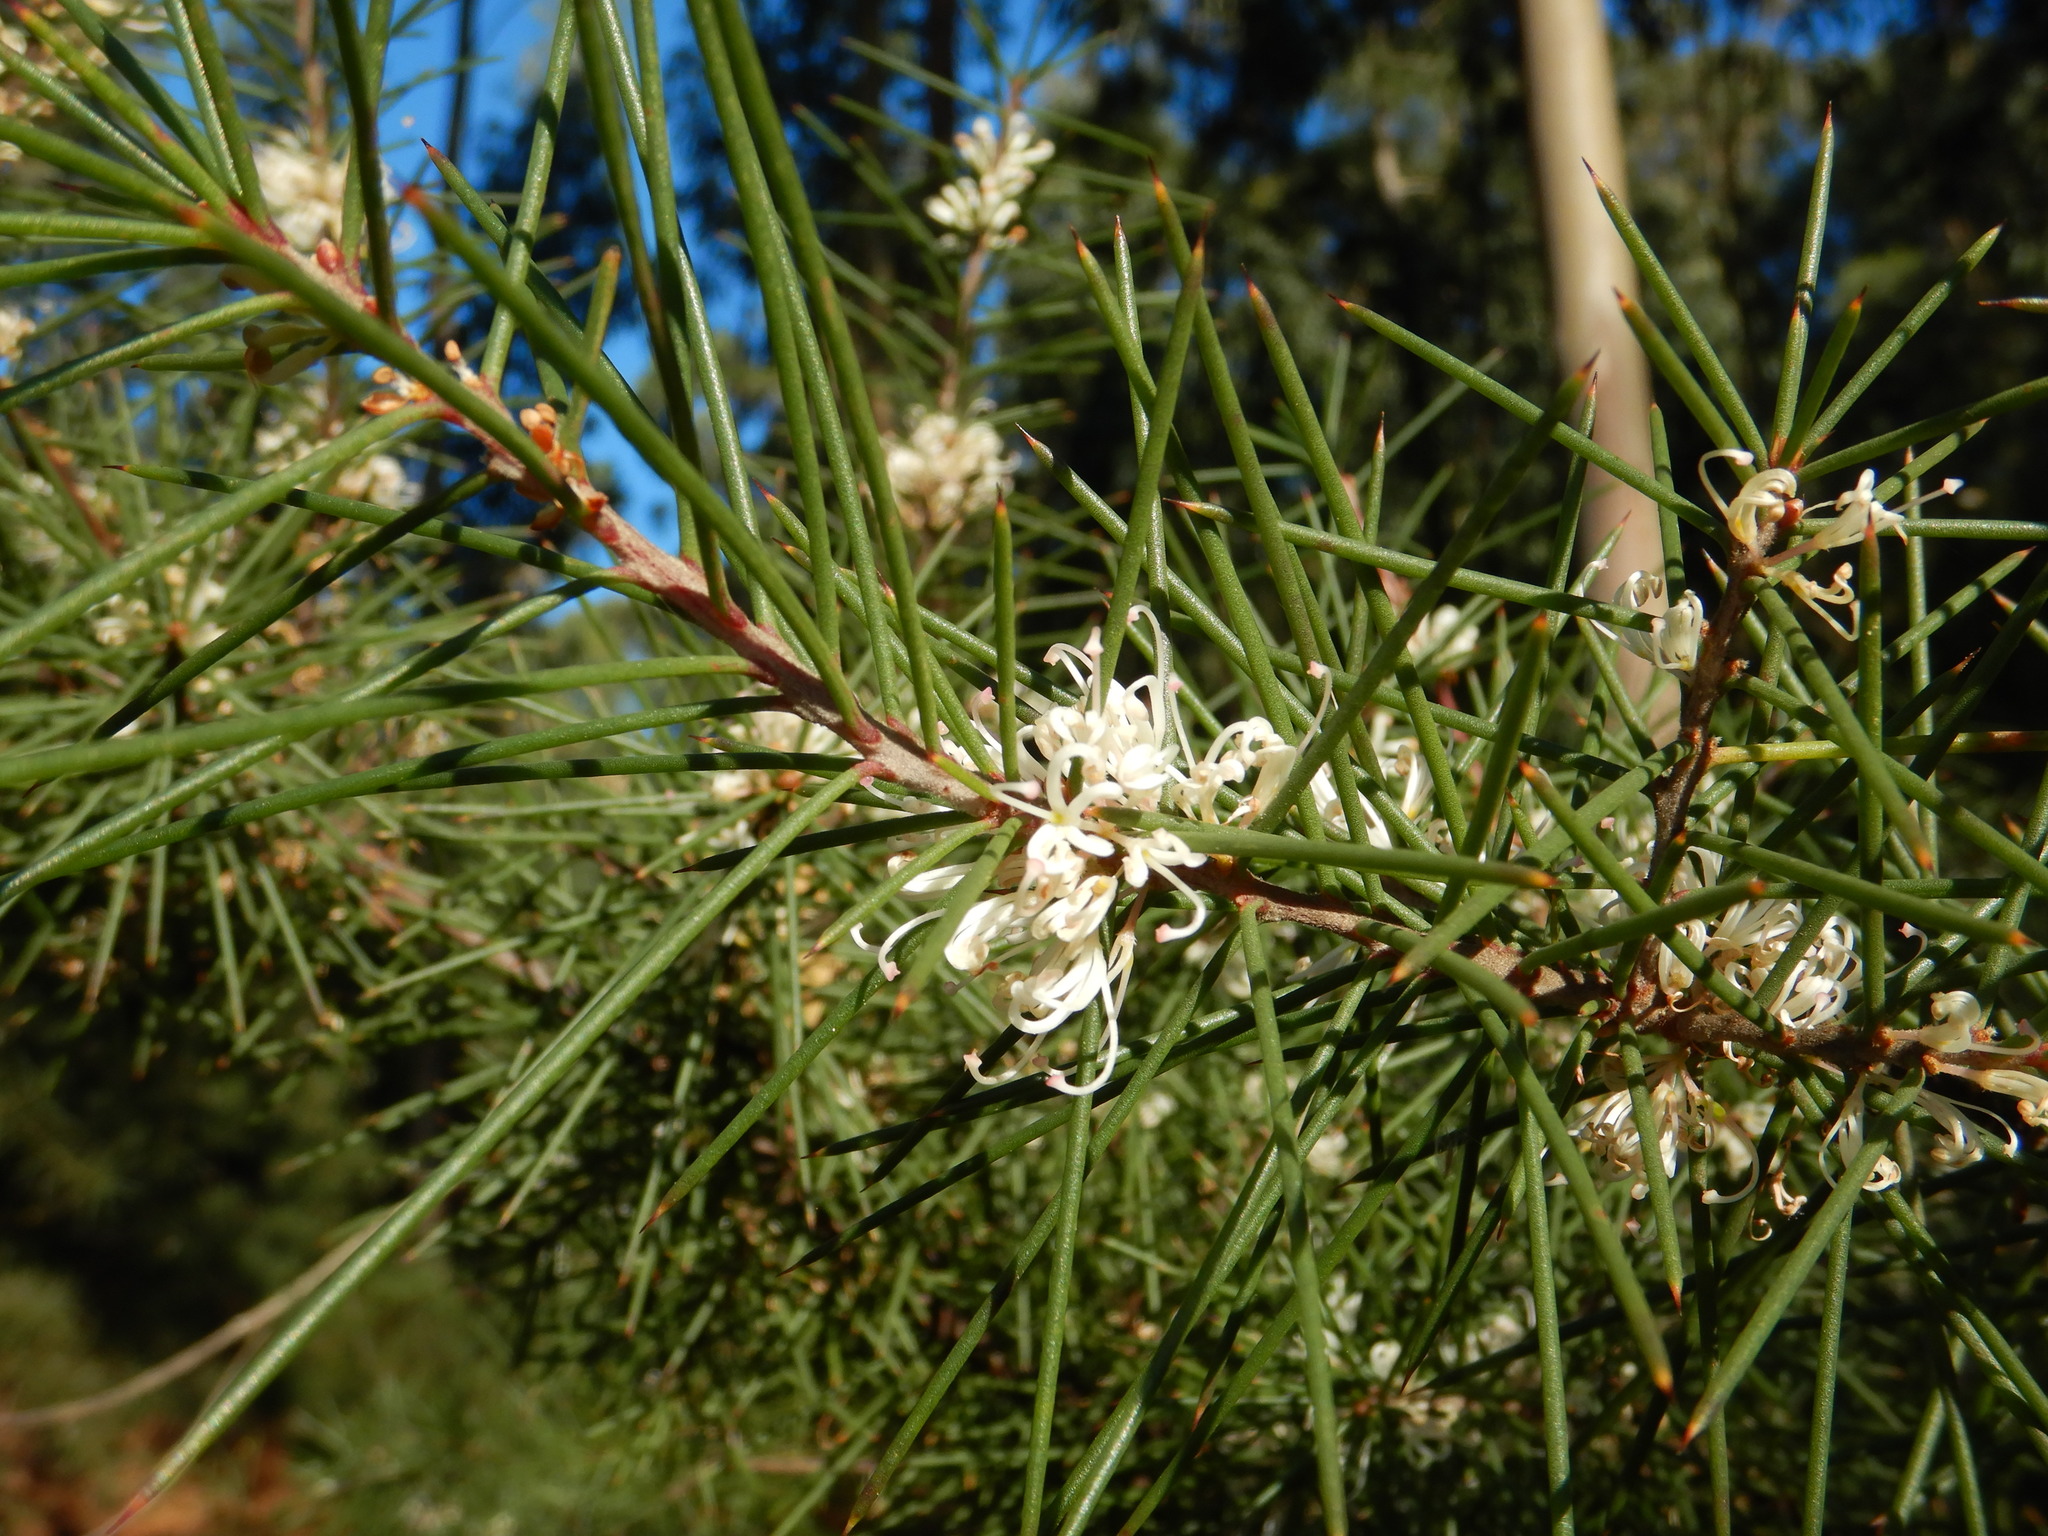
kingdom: Plantae
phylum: Tracheophyta
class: Magnoliopsida
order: Proteales
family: Proteaceae
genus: Hakea
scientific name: Hakea decurrens
